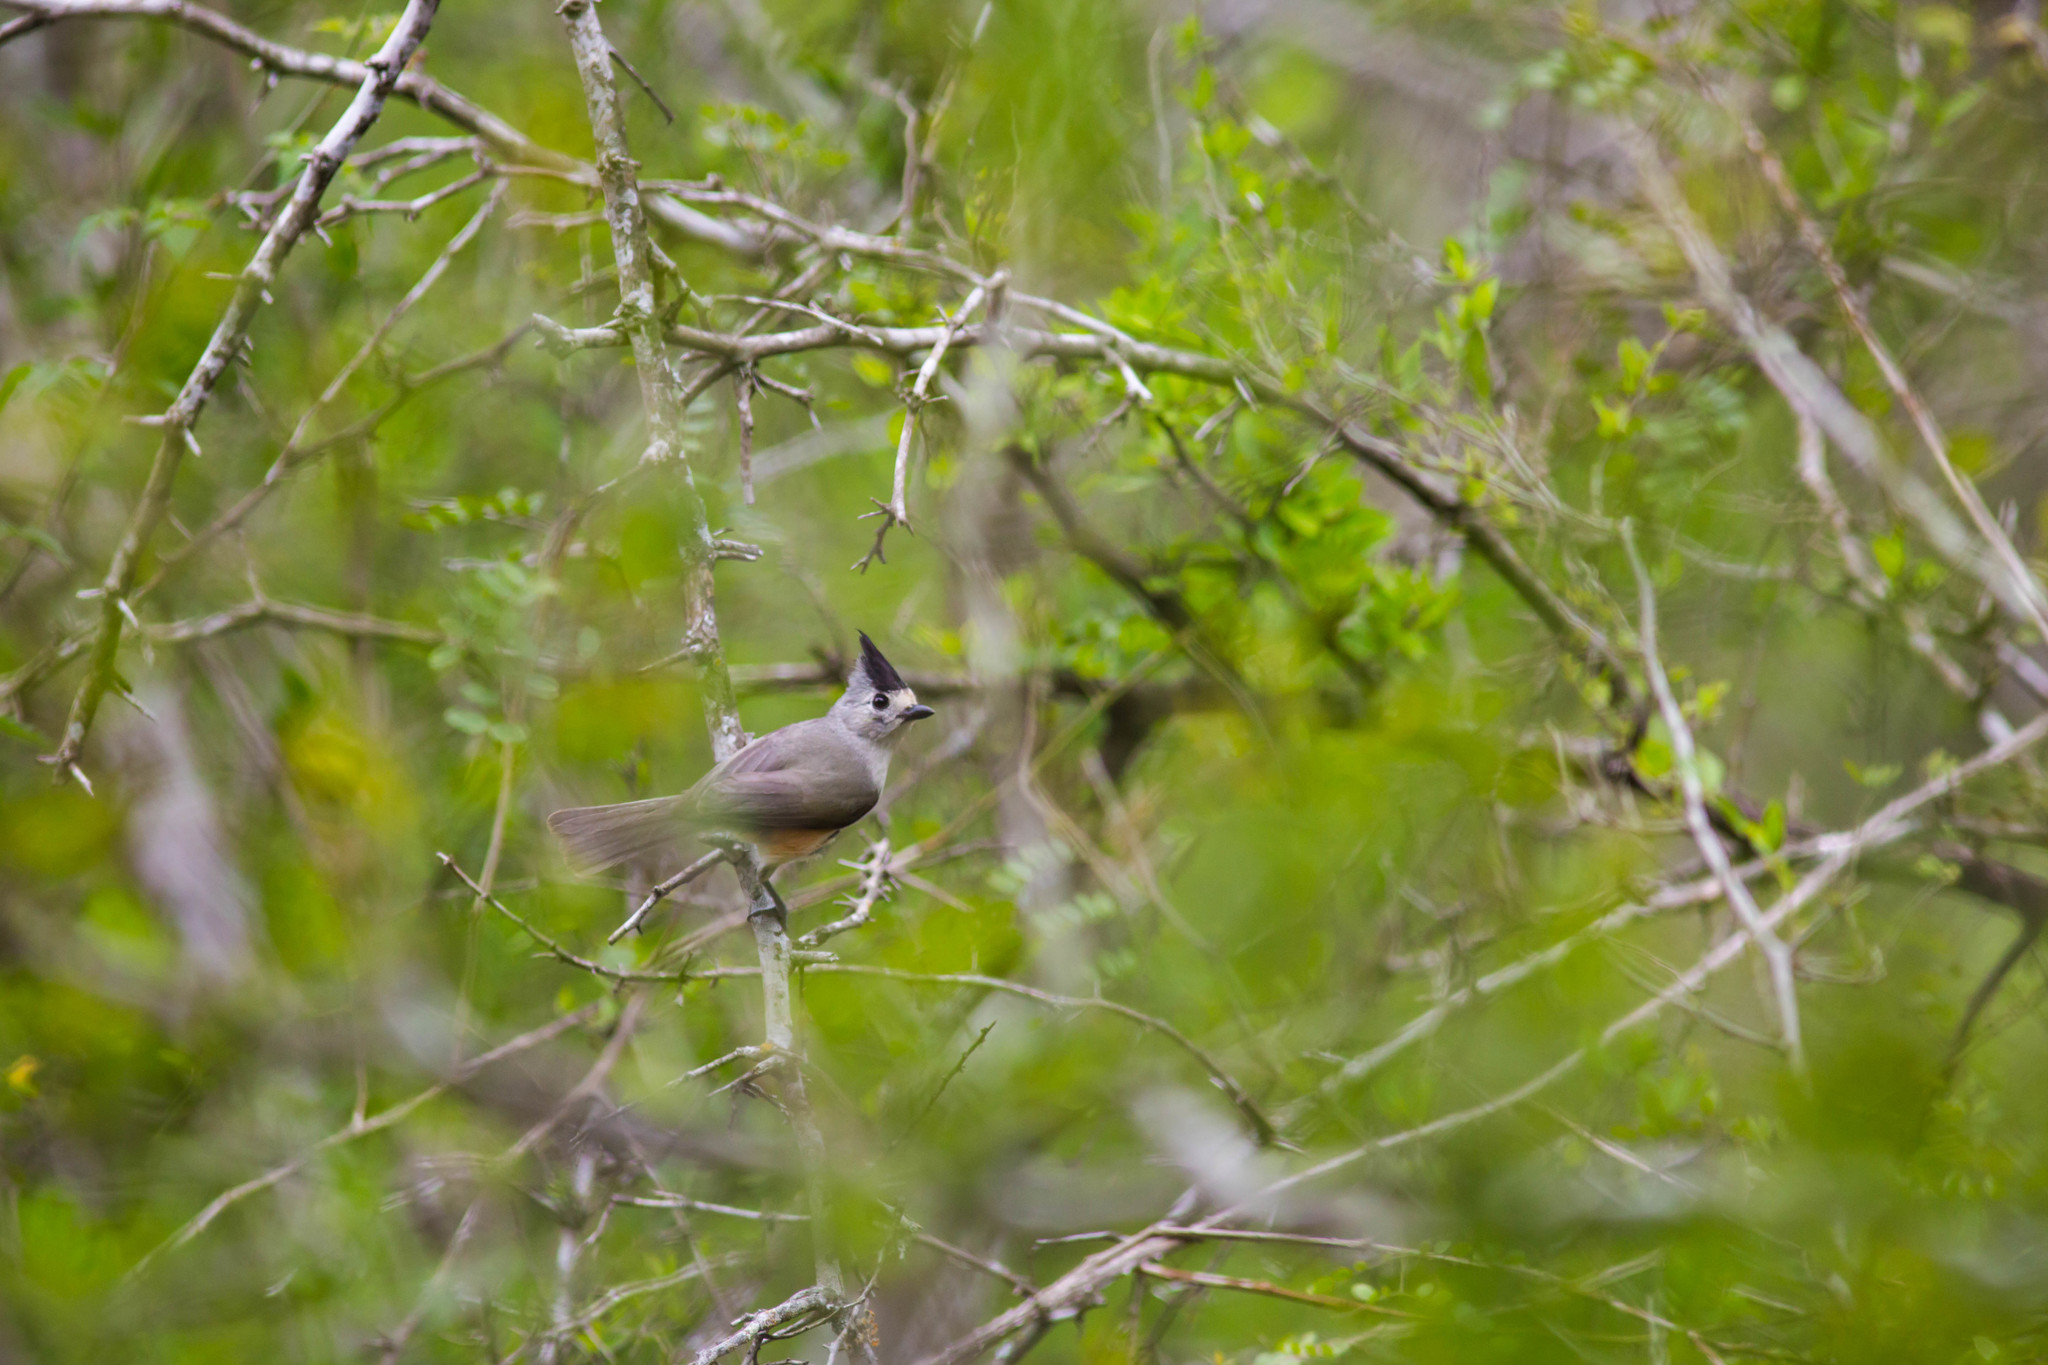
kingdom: Animalia
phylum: Chordata
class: Aves
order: Passeriformes
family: Paridae
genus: Baeolophus
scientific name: Baeolophus atricristatus
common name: Black-crested titmouse
